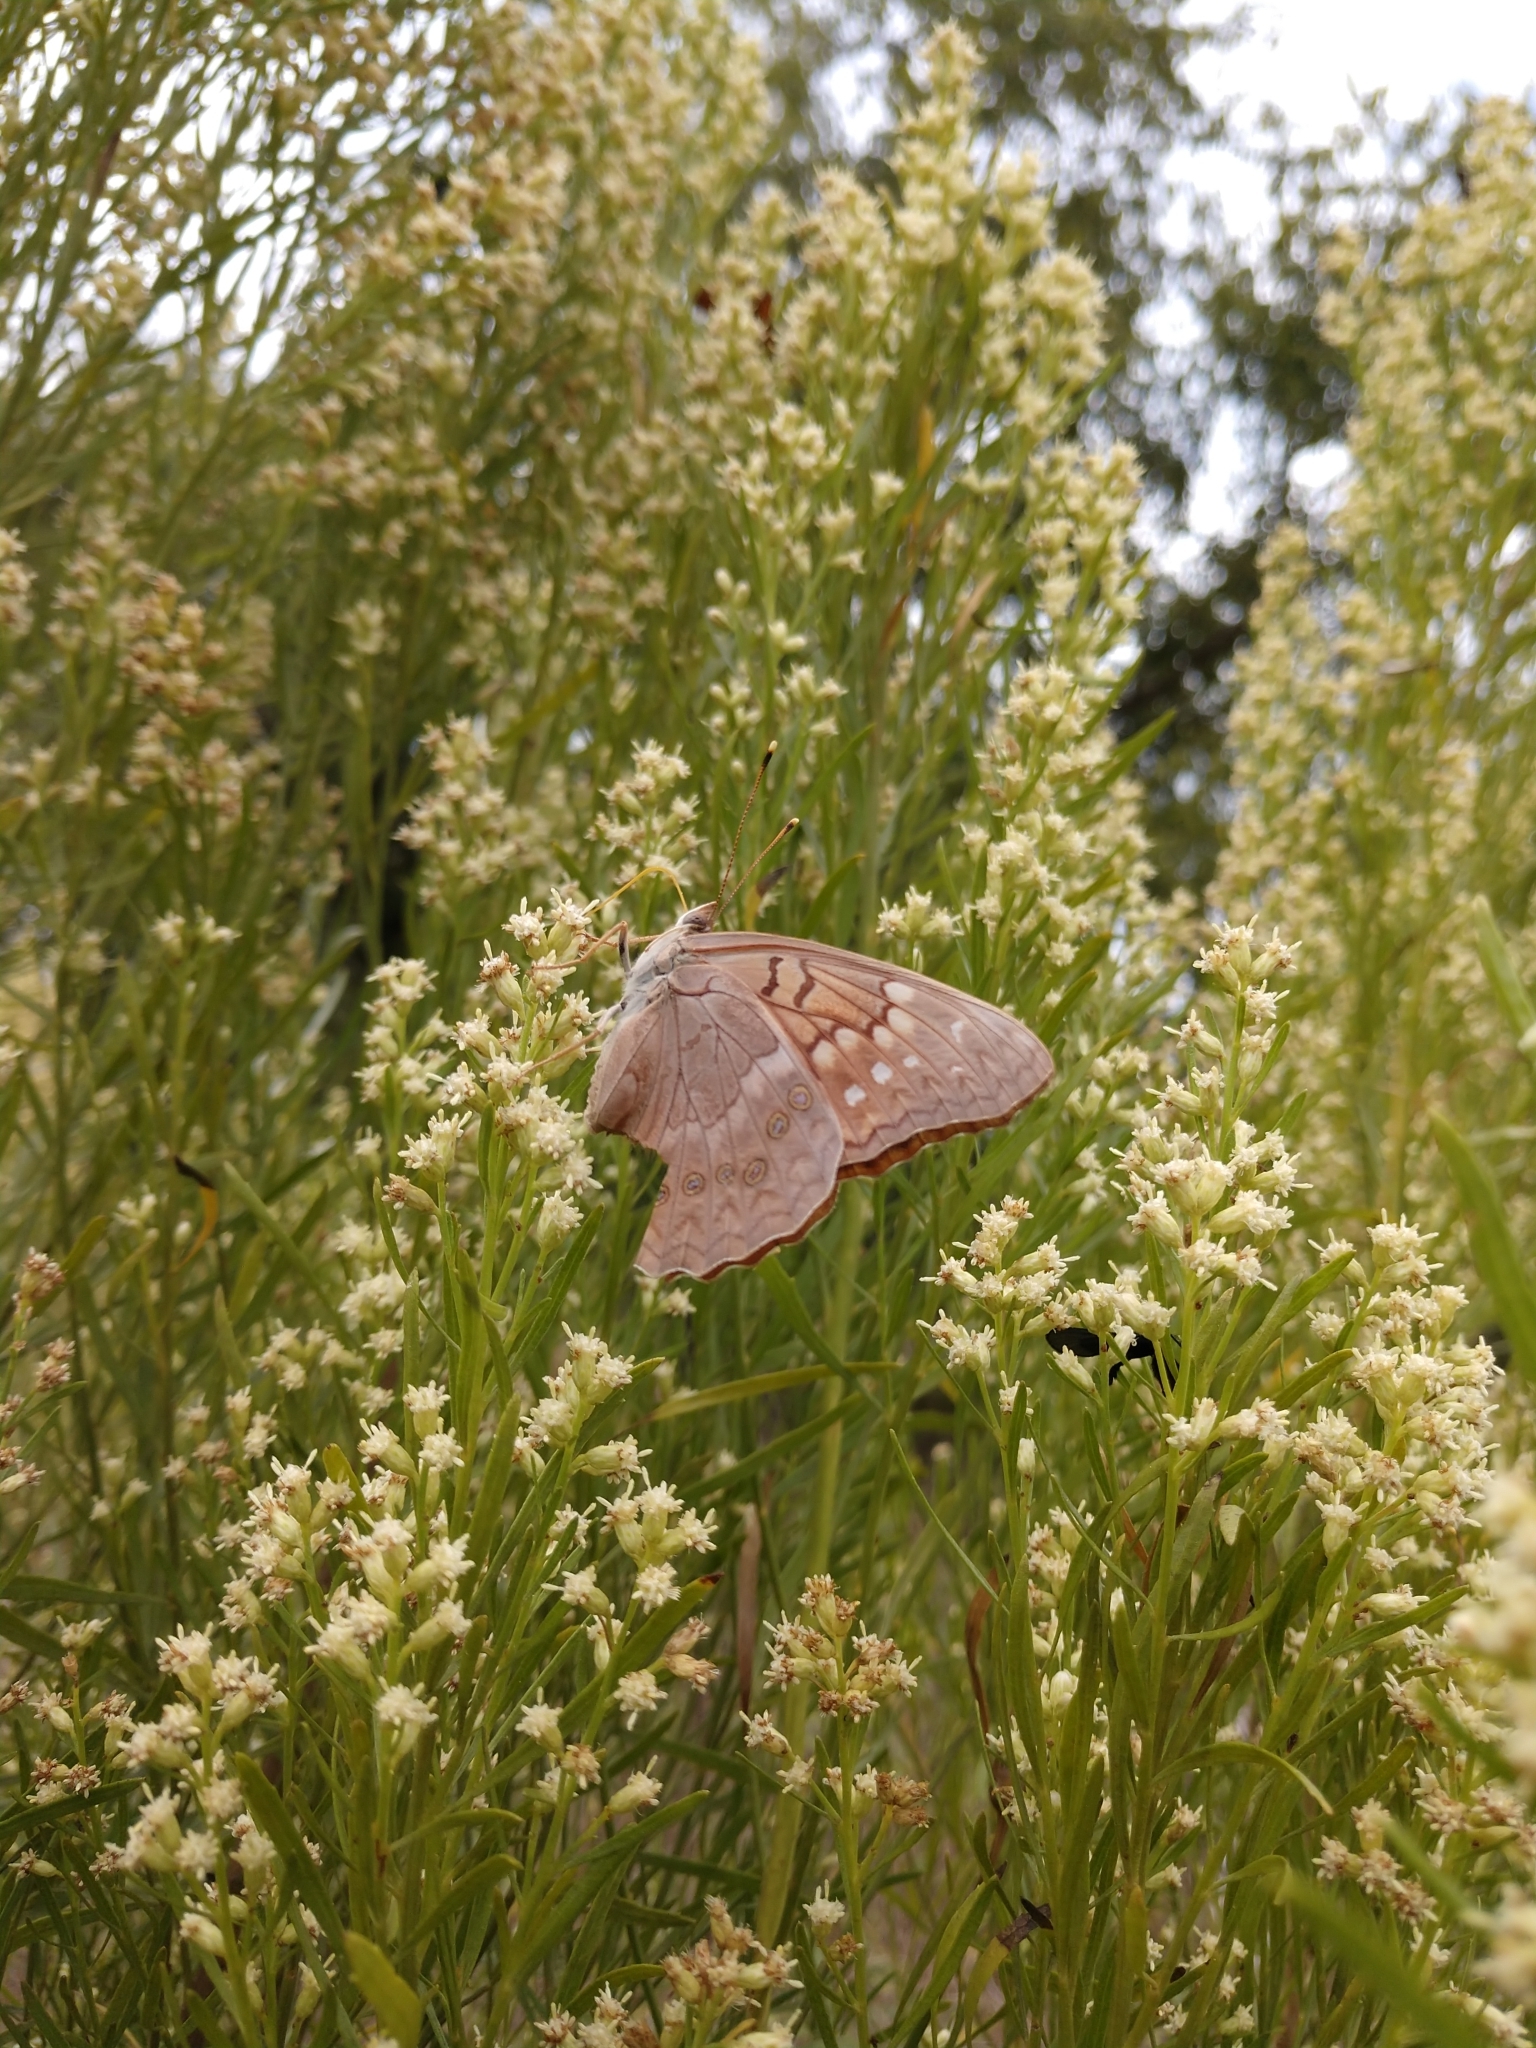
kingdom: Animalia
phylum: Arthropoda
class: Insecta
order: Lepidoptera
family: Nymphalidae
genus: Asterocampa
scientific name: Asterocampa clyton
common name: Tawny emperor
